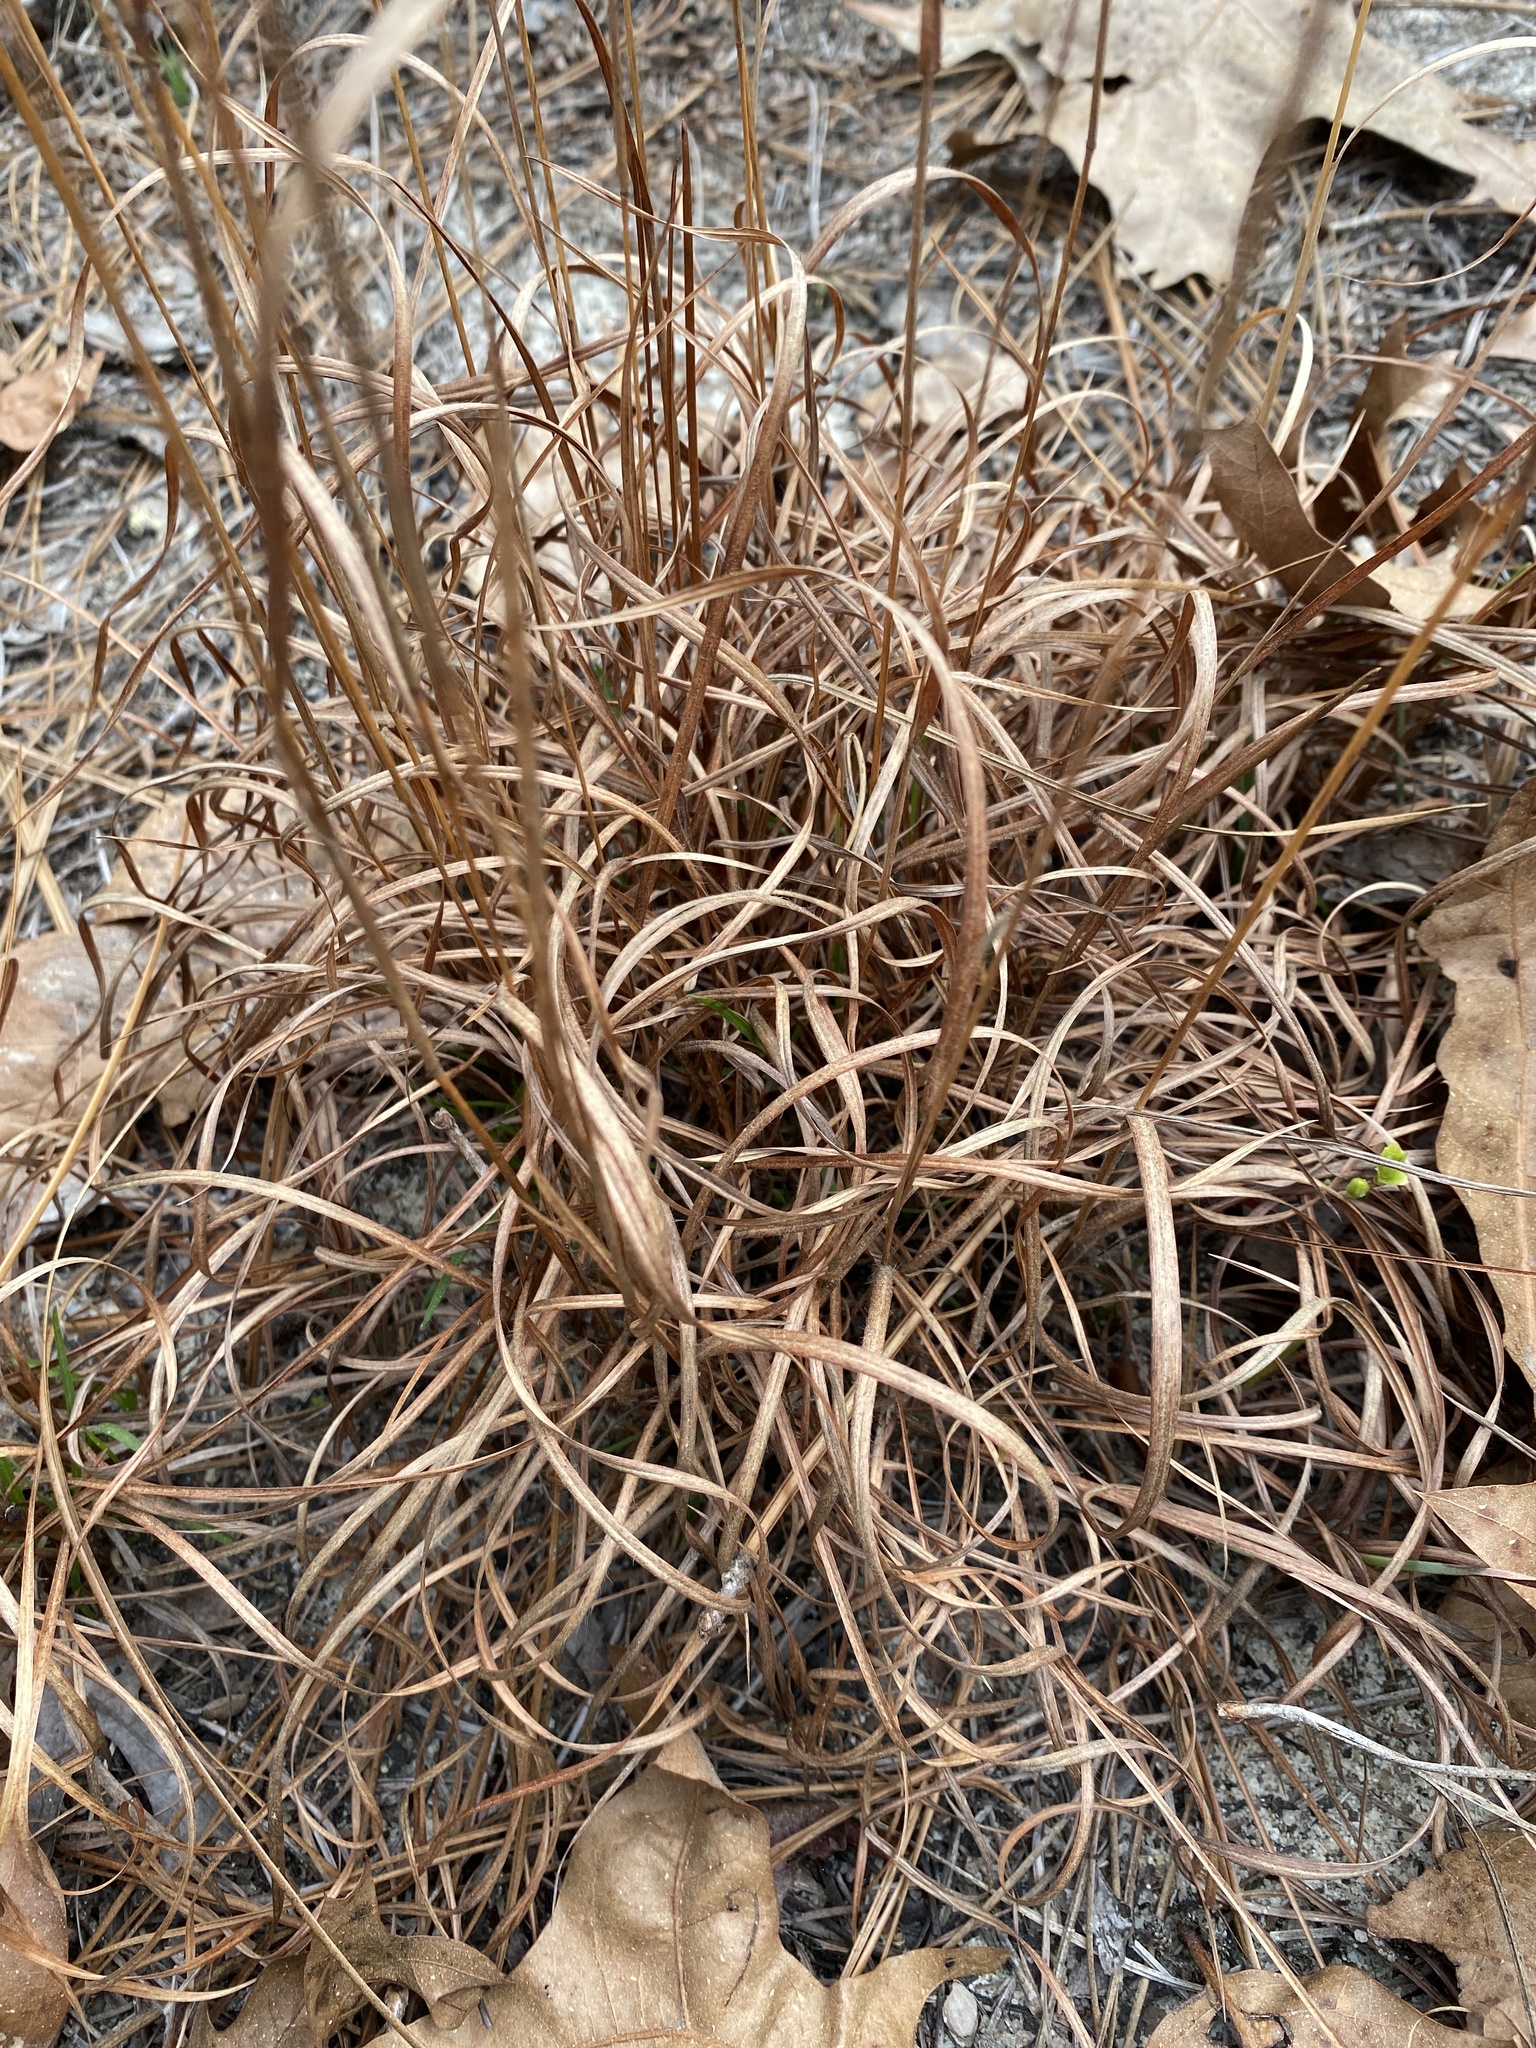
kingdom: Plantae
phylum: Tracheophyta
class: Liliopsida
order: Poales
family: Poaceae
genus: Andropogon
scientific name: Andropogon ternarius
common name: Split bluestem
